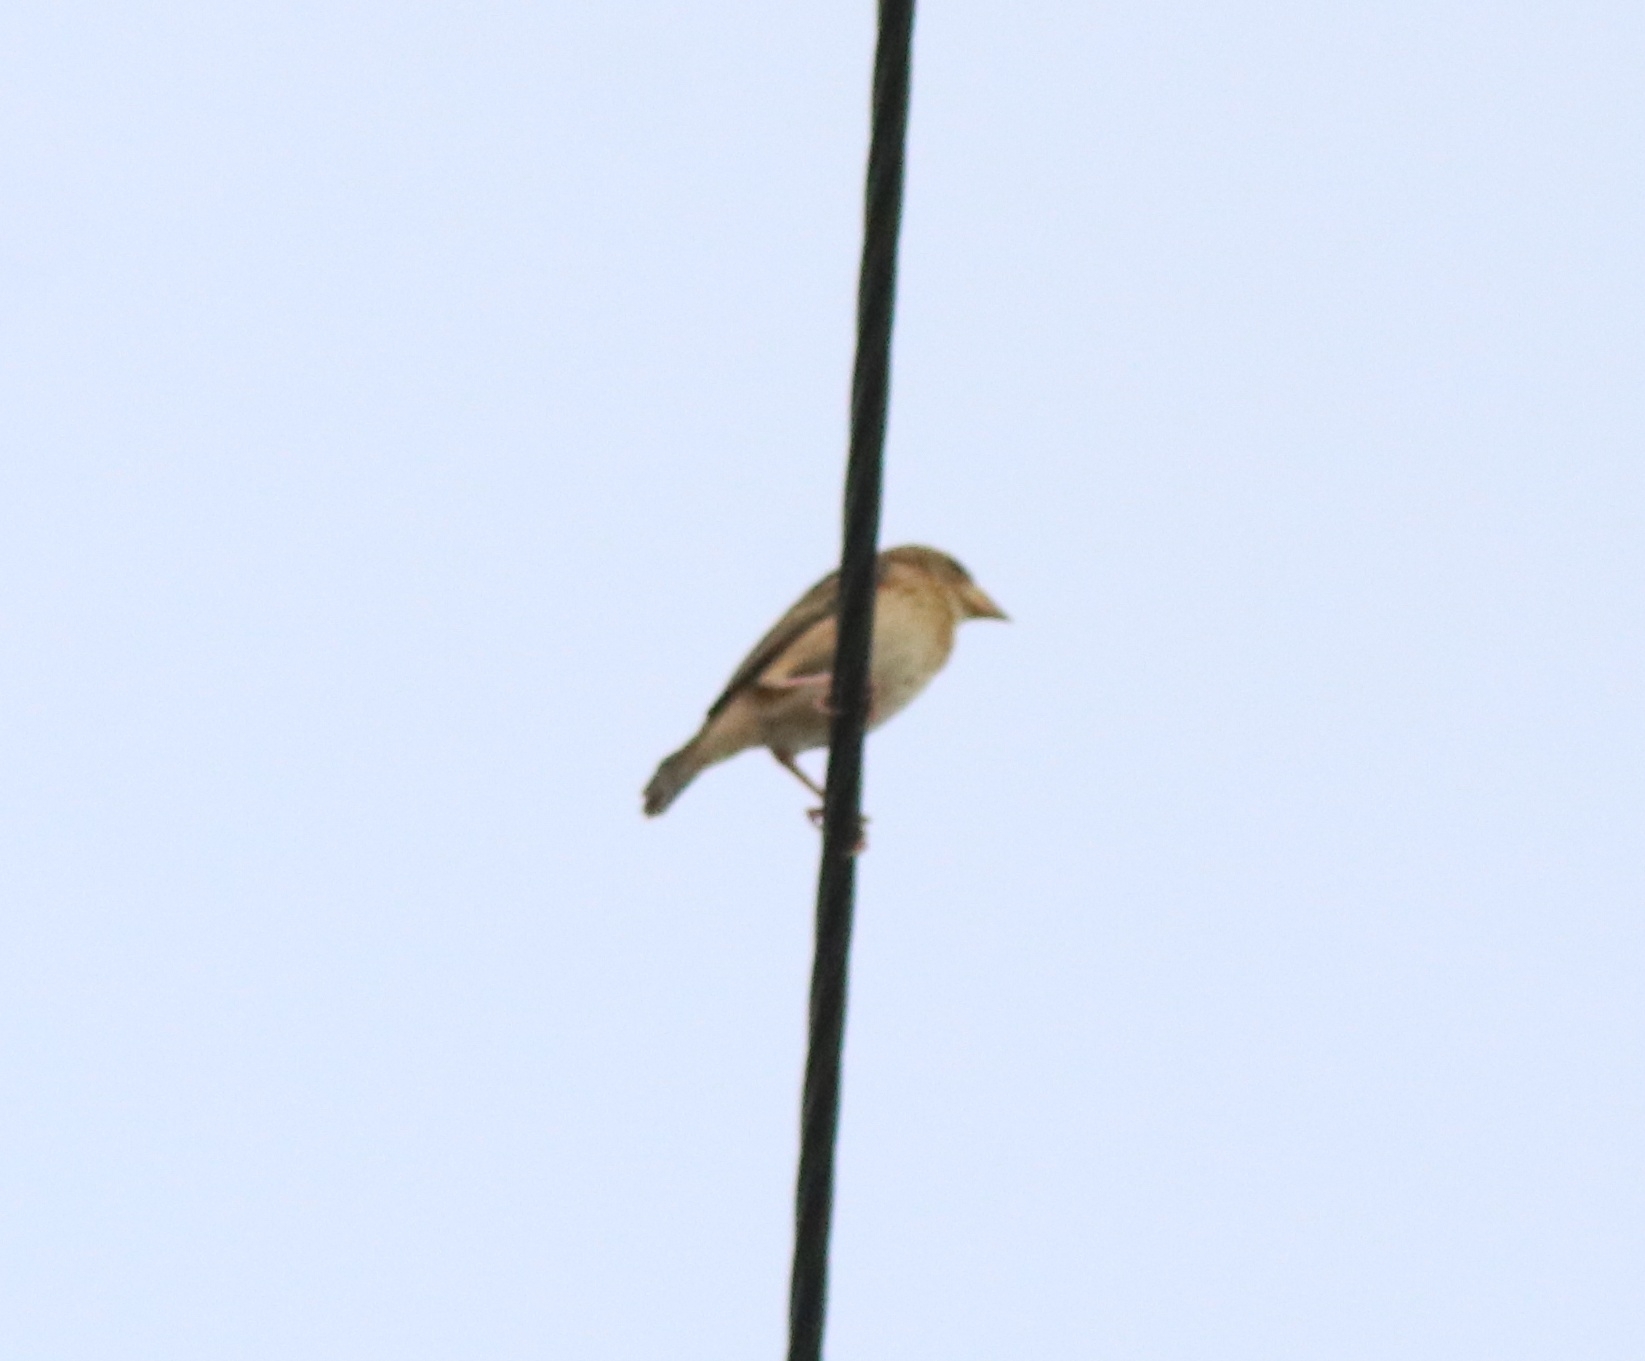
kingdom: Animalia
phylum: Chordata
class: Aves
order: Passeriformes
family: Ploceidae
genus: Ploceus
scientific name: Ploceus philippinus
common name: Baya weaver
